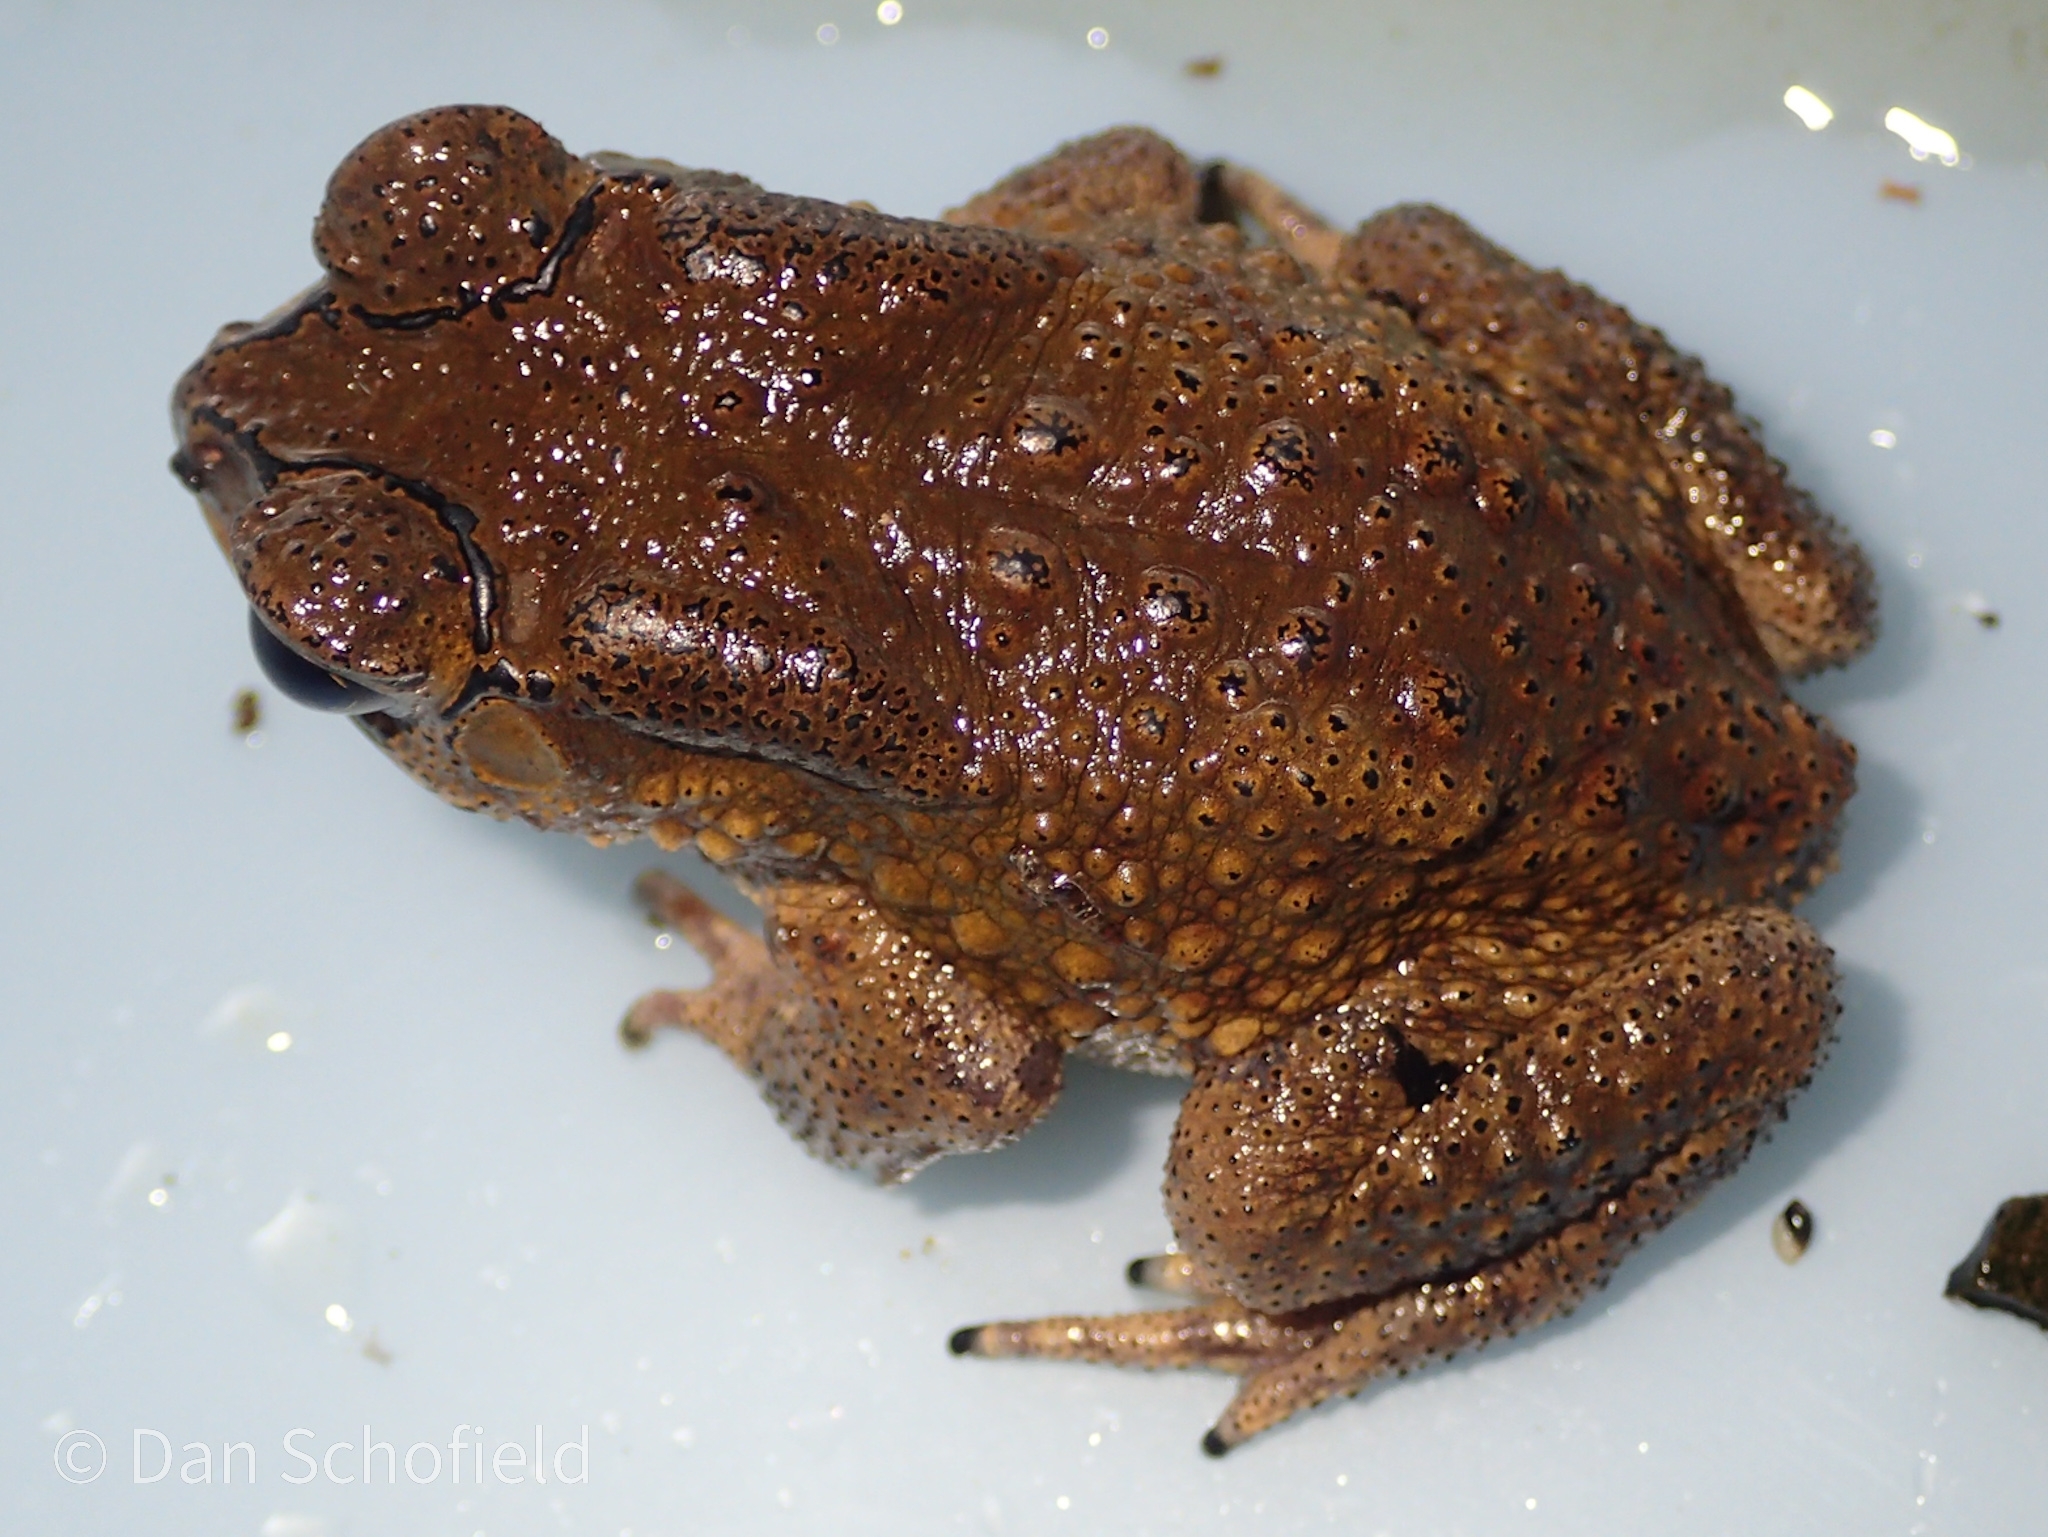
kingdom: Animalia
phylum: Chordata
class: Amphibia
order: Anura
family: Bufonidae
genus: Duttaphrynus
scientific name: Duttaphrynus melanostictus
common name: Common sunda toad
